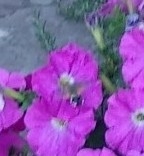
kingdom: Animalia
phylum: Arthropoda
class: Insecta
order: Lepidoptera
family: Sphingidae
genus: Macroglossum
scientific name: Macroglossum stellatarum
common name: Humming-bird hawk-moth
